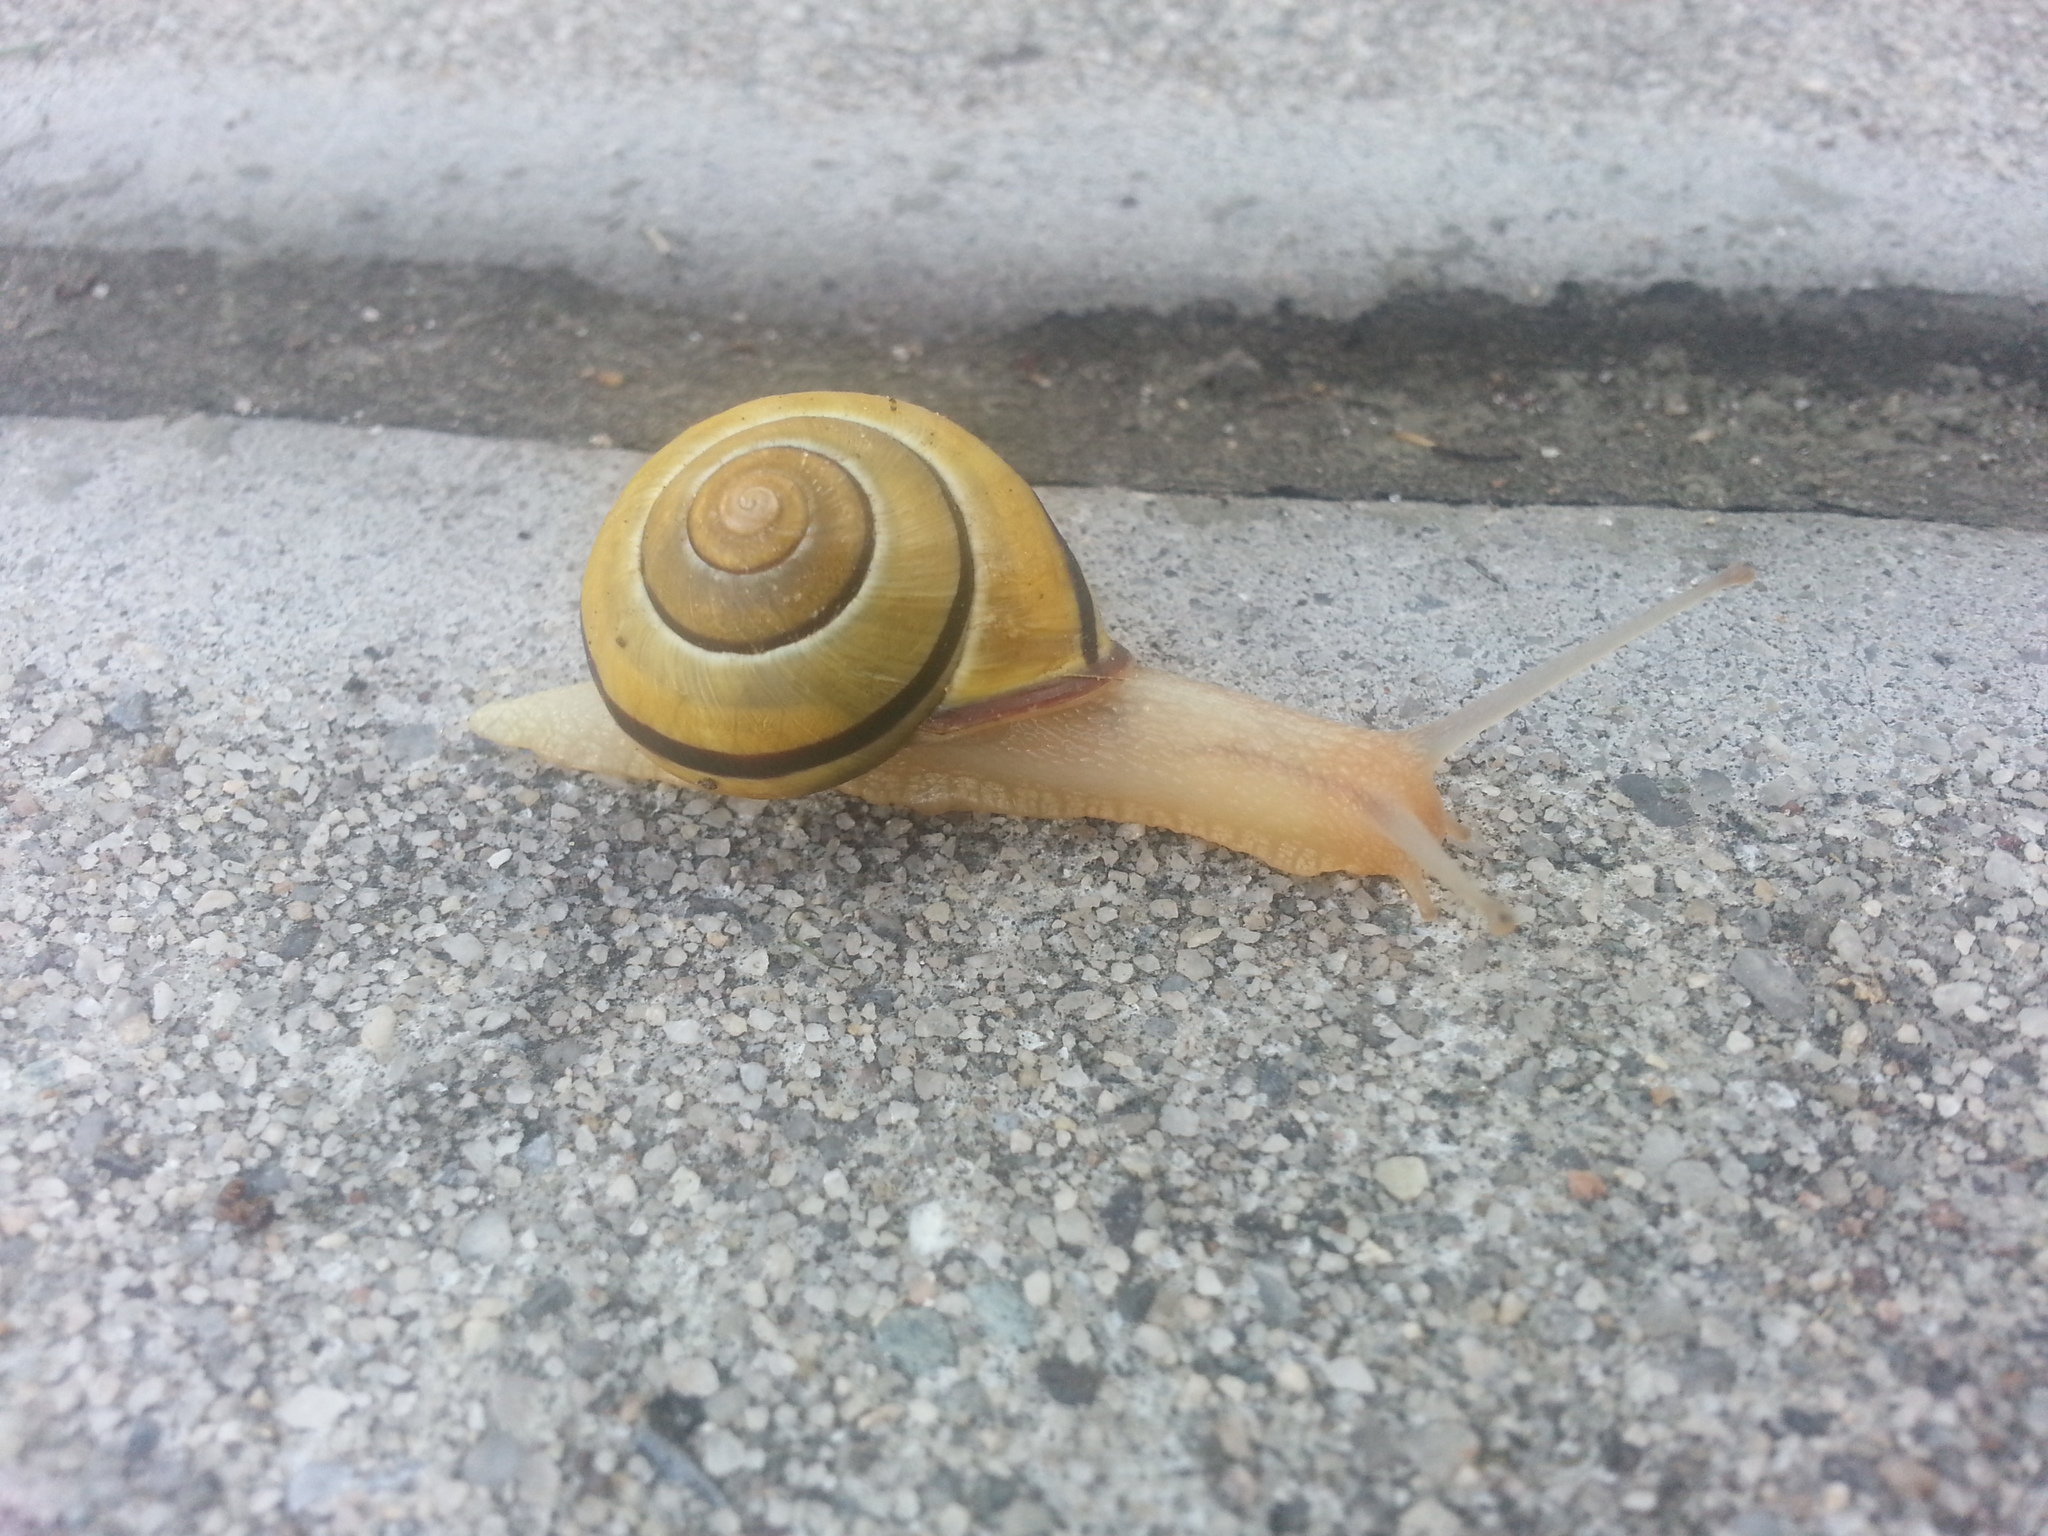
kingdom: Animalia
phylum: Mollusca
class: Gastropoda
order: Stylommatophora
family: Helicidae
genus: Cepaea
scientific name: Cepaea nemoralis
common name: Grovesnail
